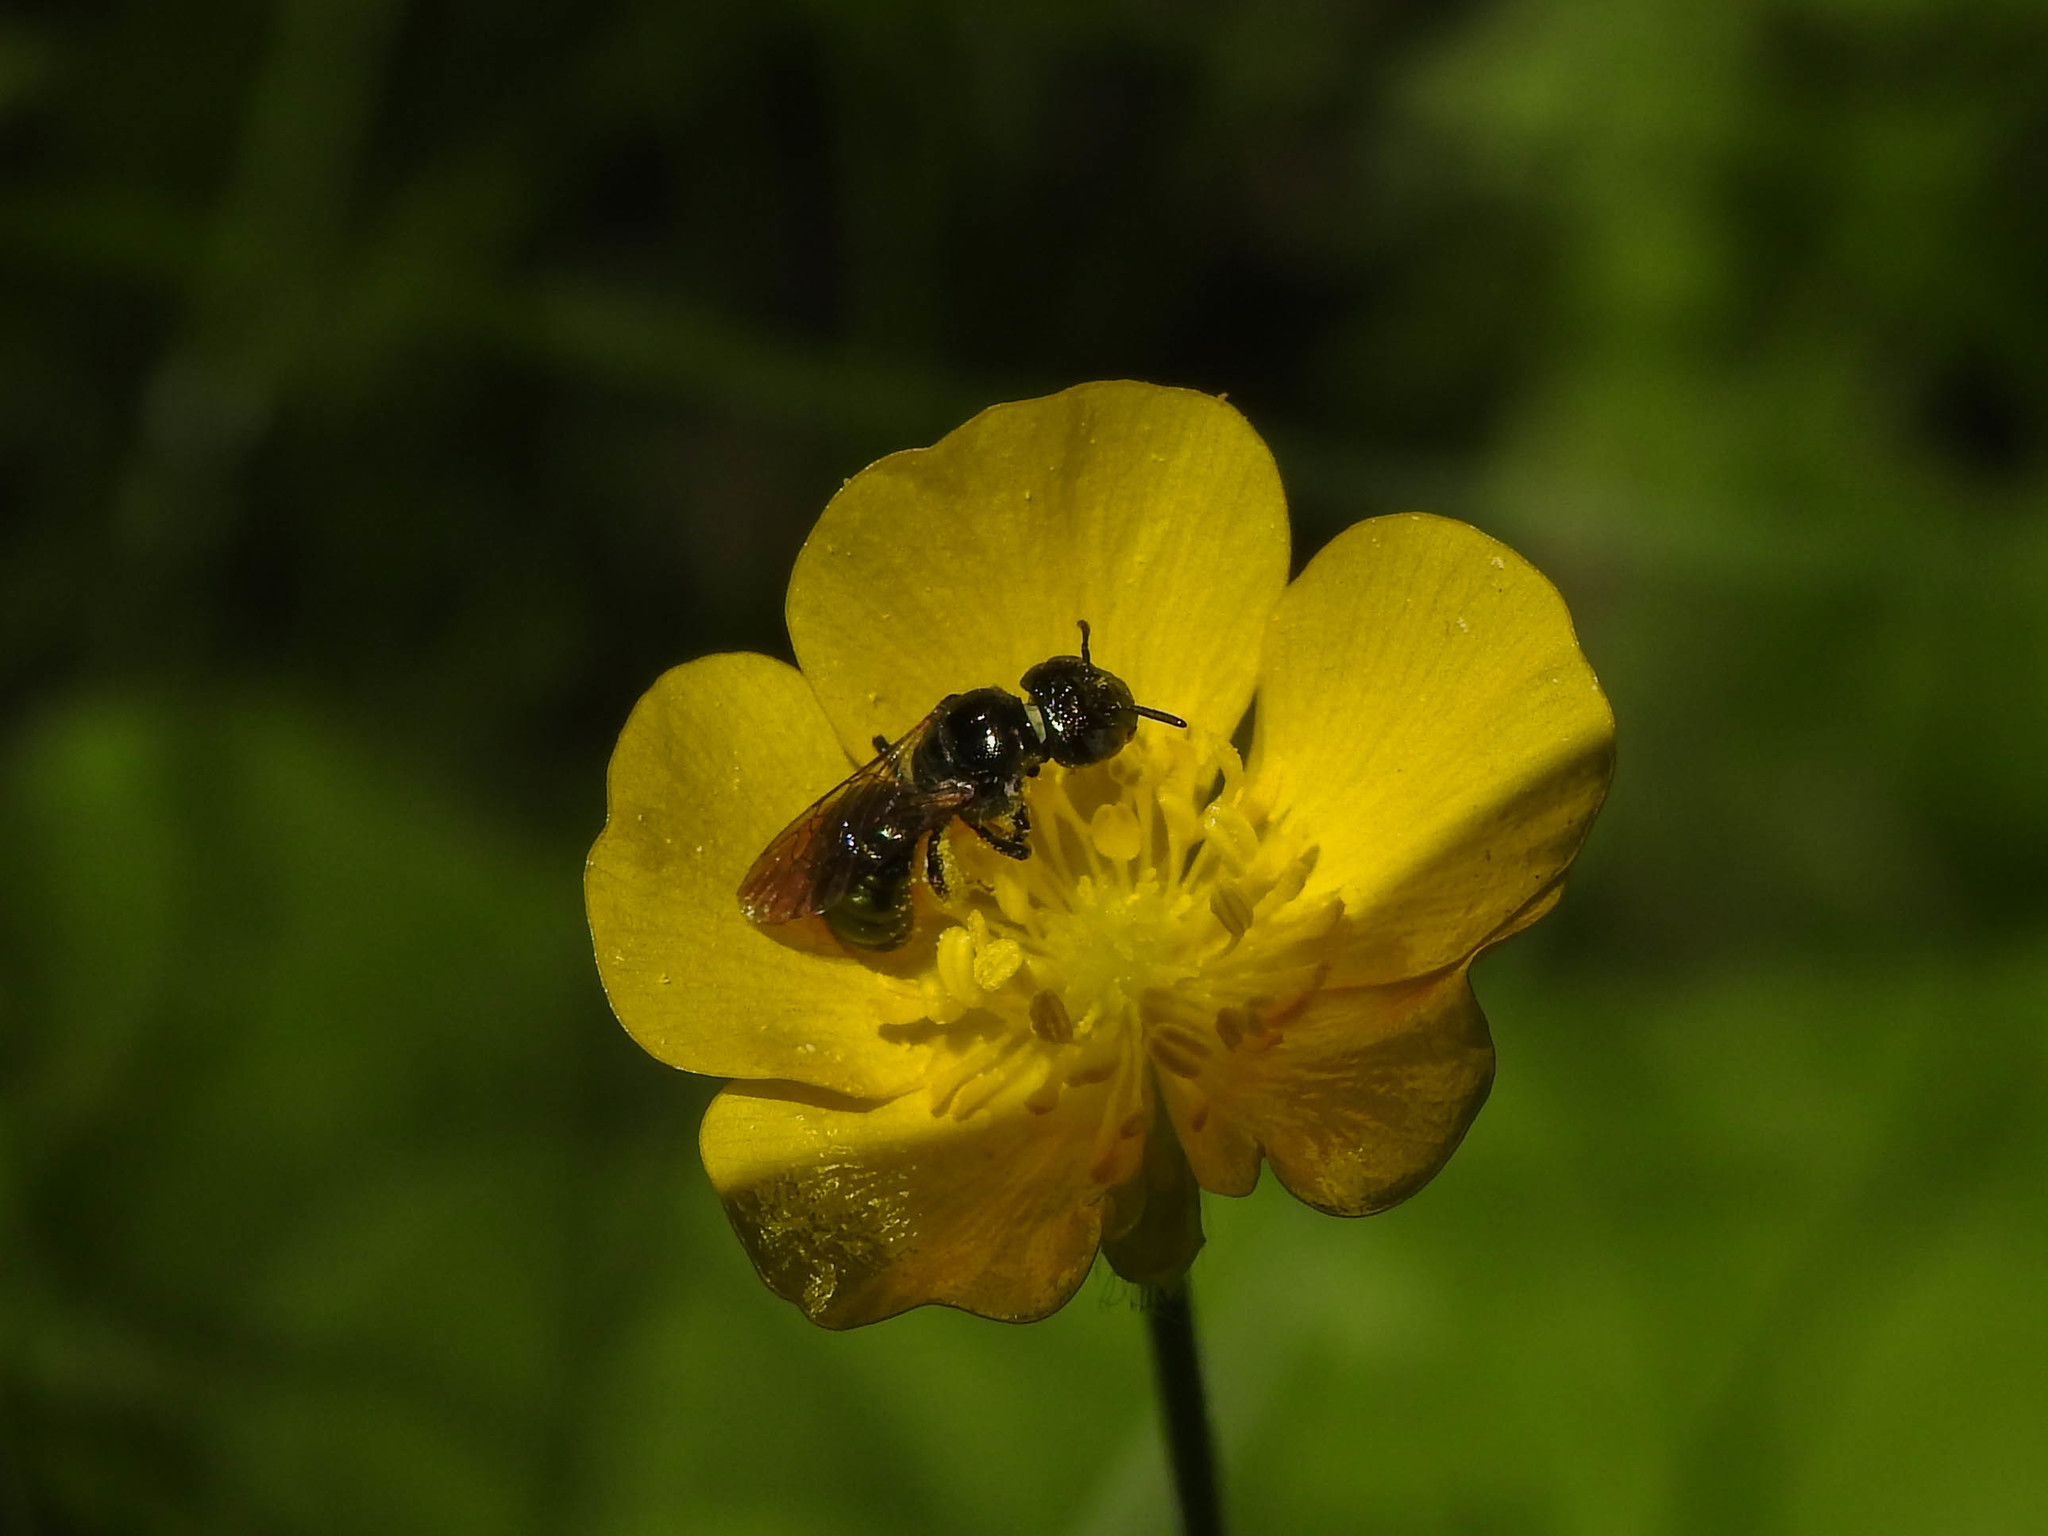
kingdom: Animalia
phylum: Arthropoda
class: Insecta
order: Hymenoptera
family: Apidae
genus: Ceratina
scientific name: Ceratina calcarata
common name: Spurred carpenter bee
